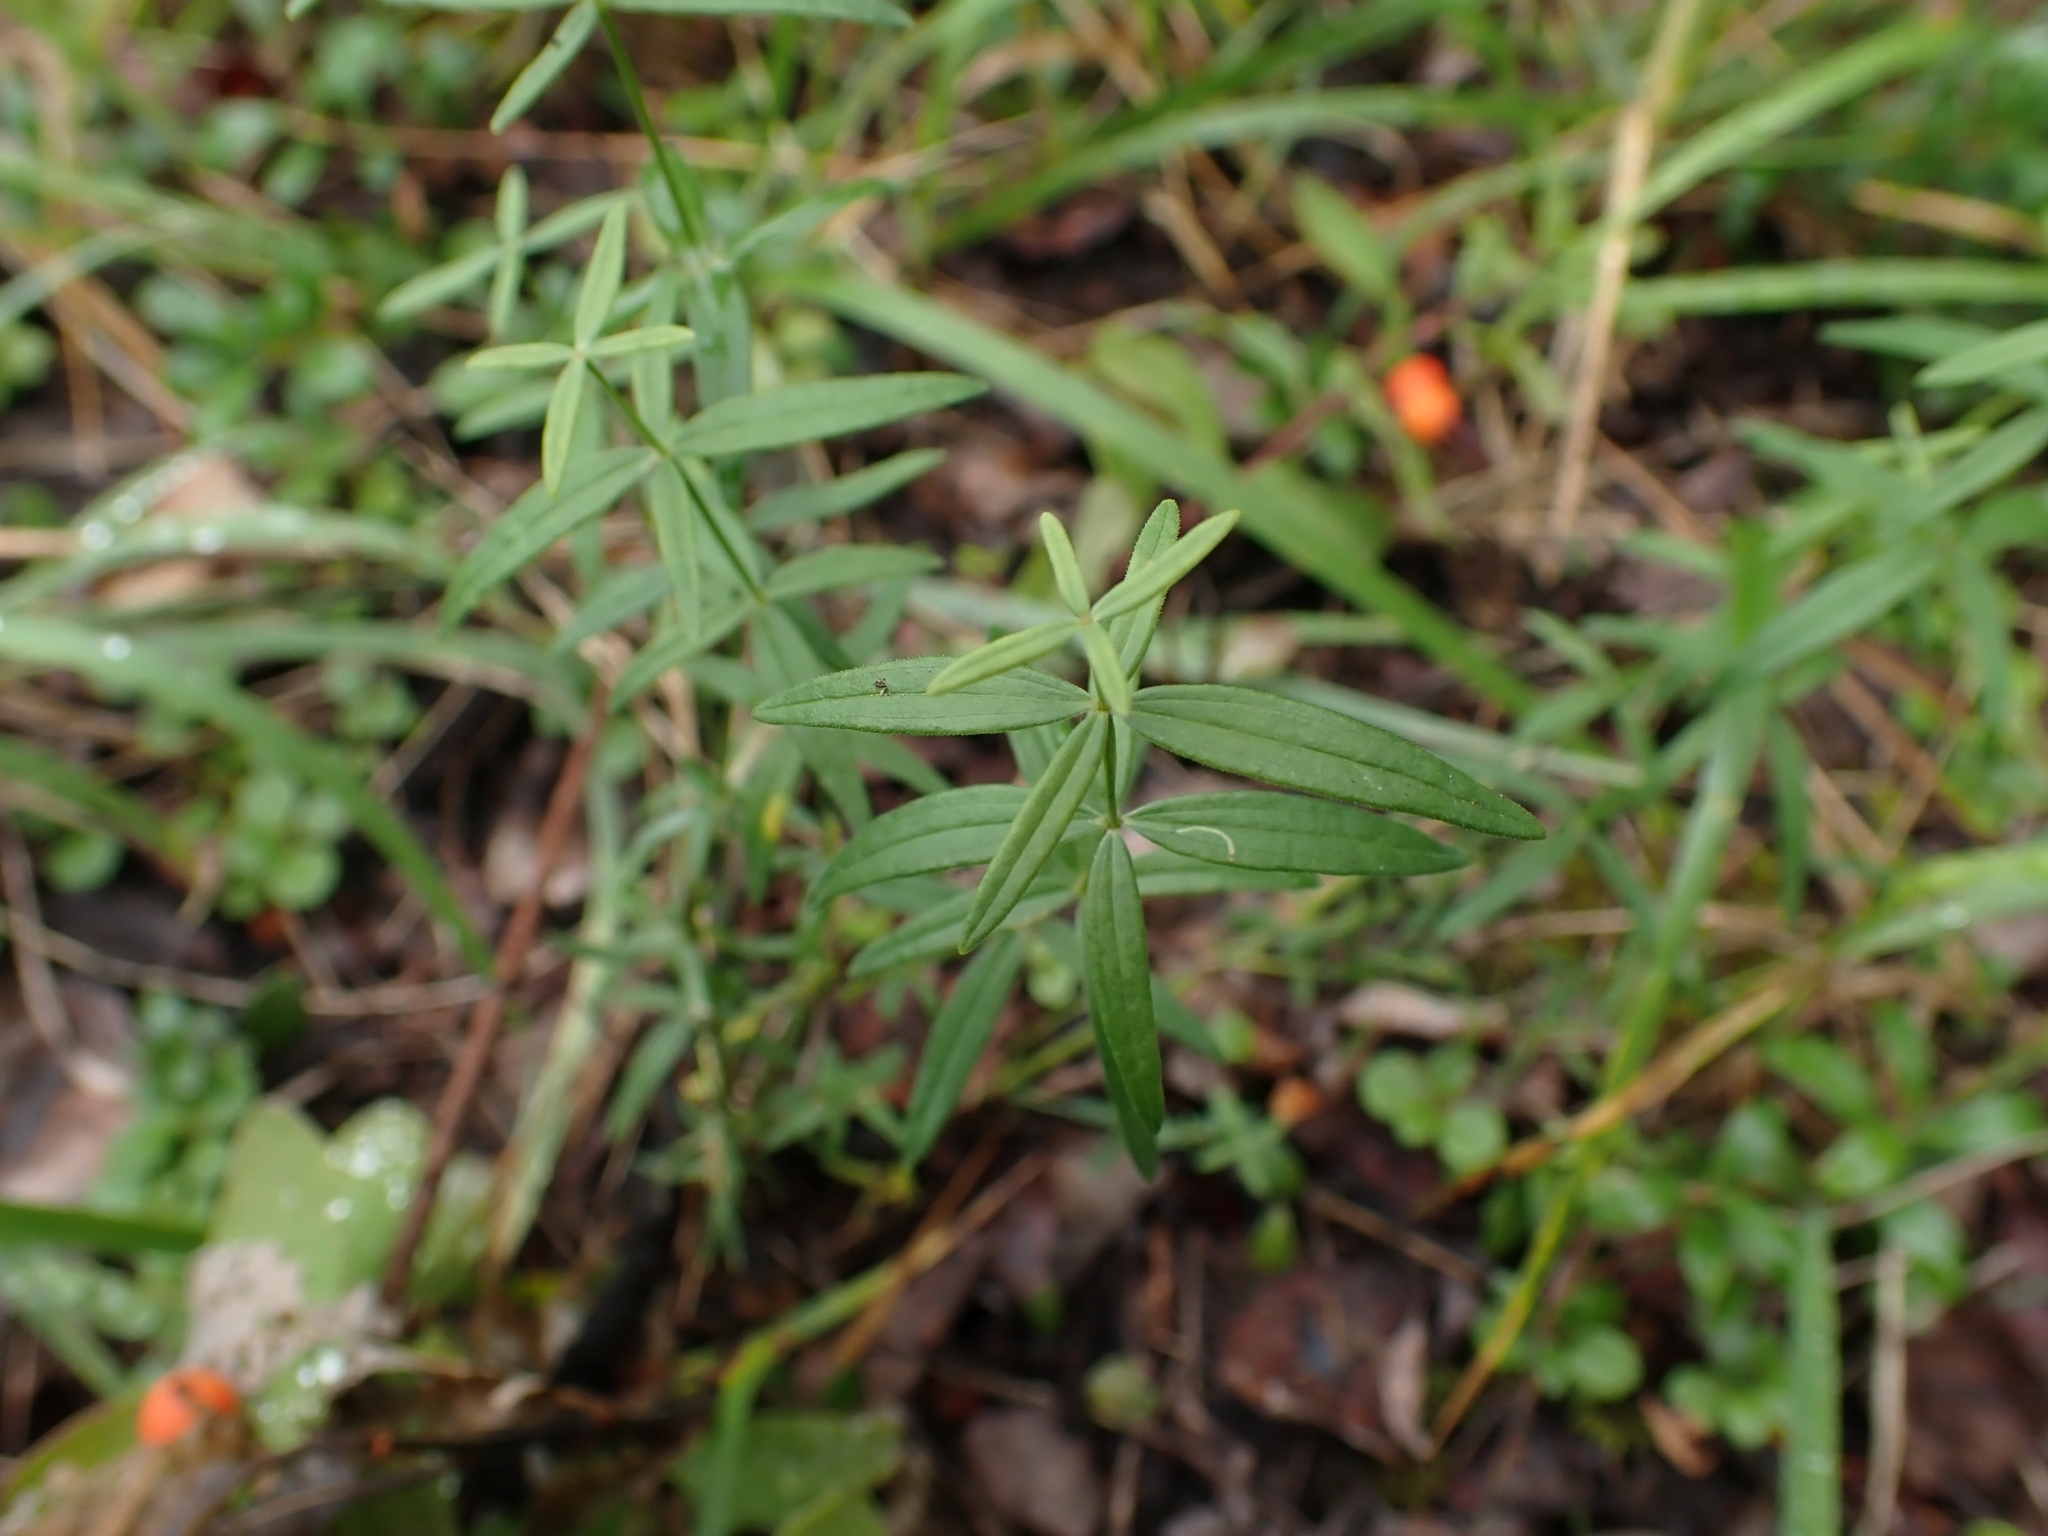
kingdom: Plantae
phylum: Tracheophyta
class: Magnoliopsida
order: Gentianales
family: Rubiaceae
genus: Galium
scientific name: Galium boreale
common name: Northern bedstraw
